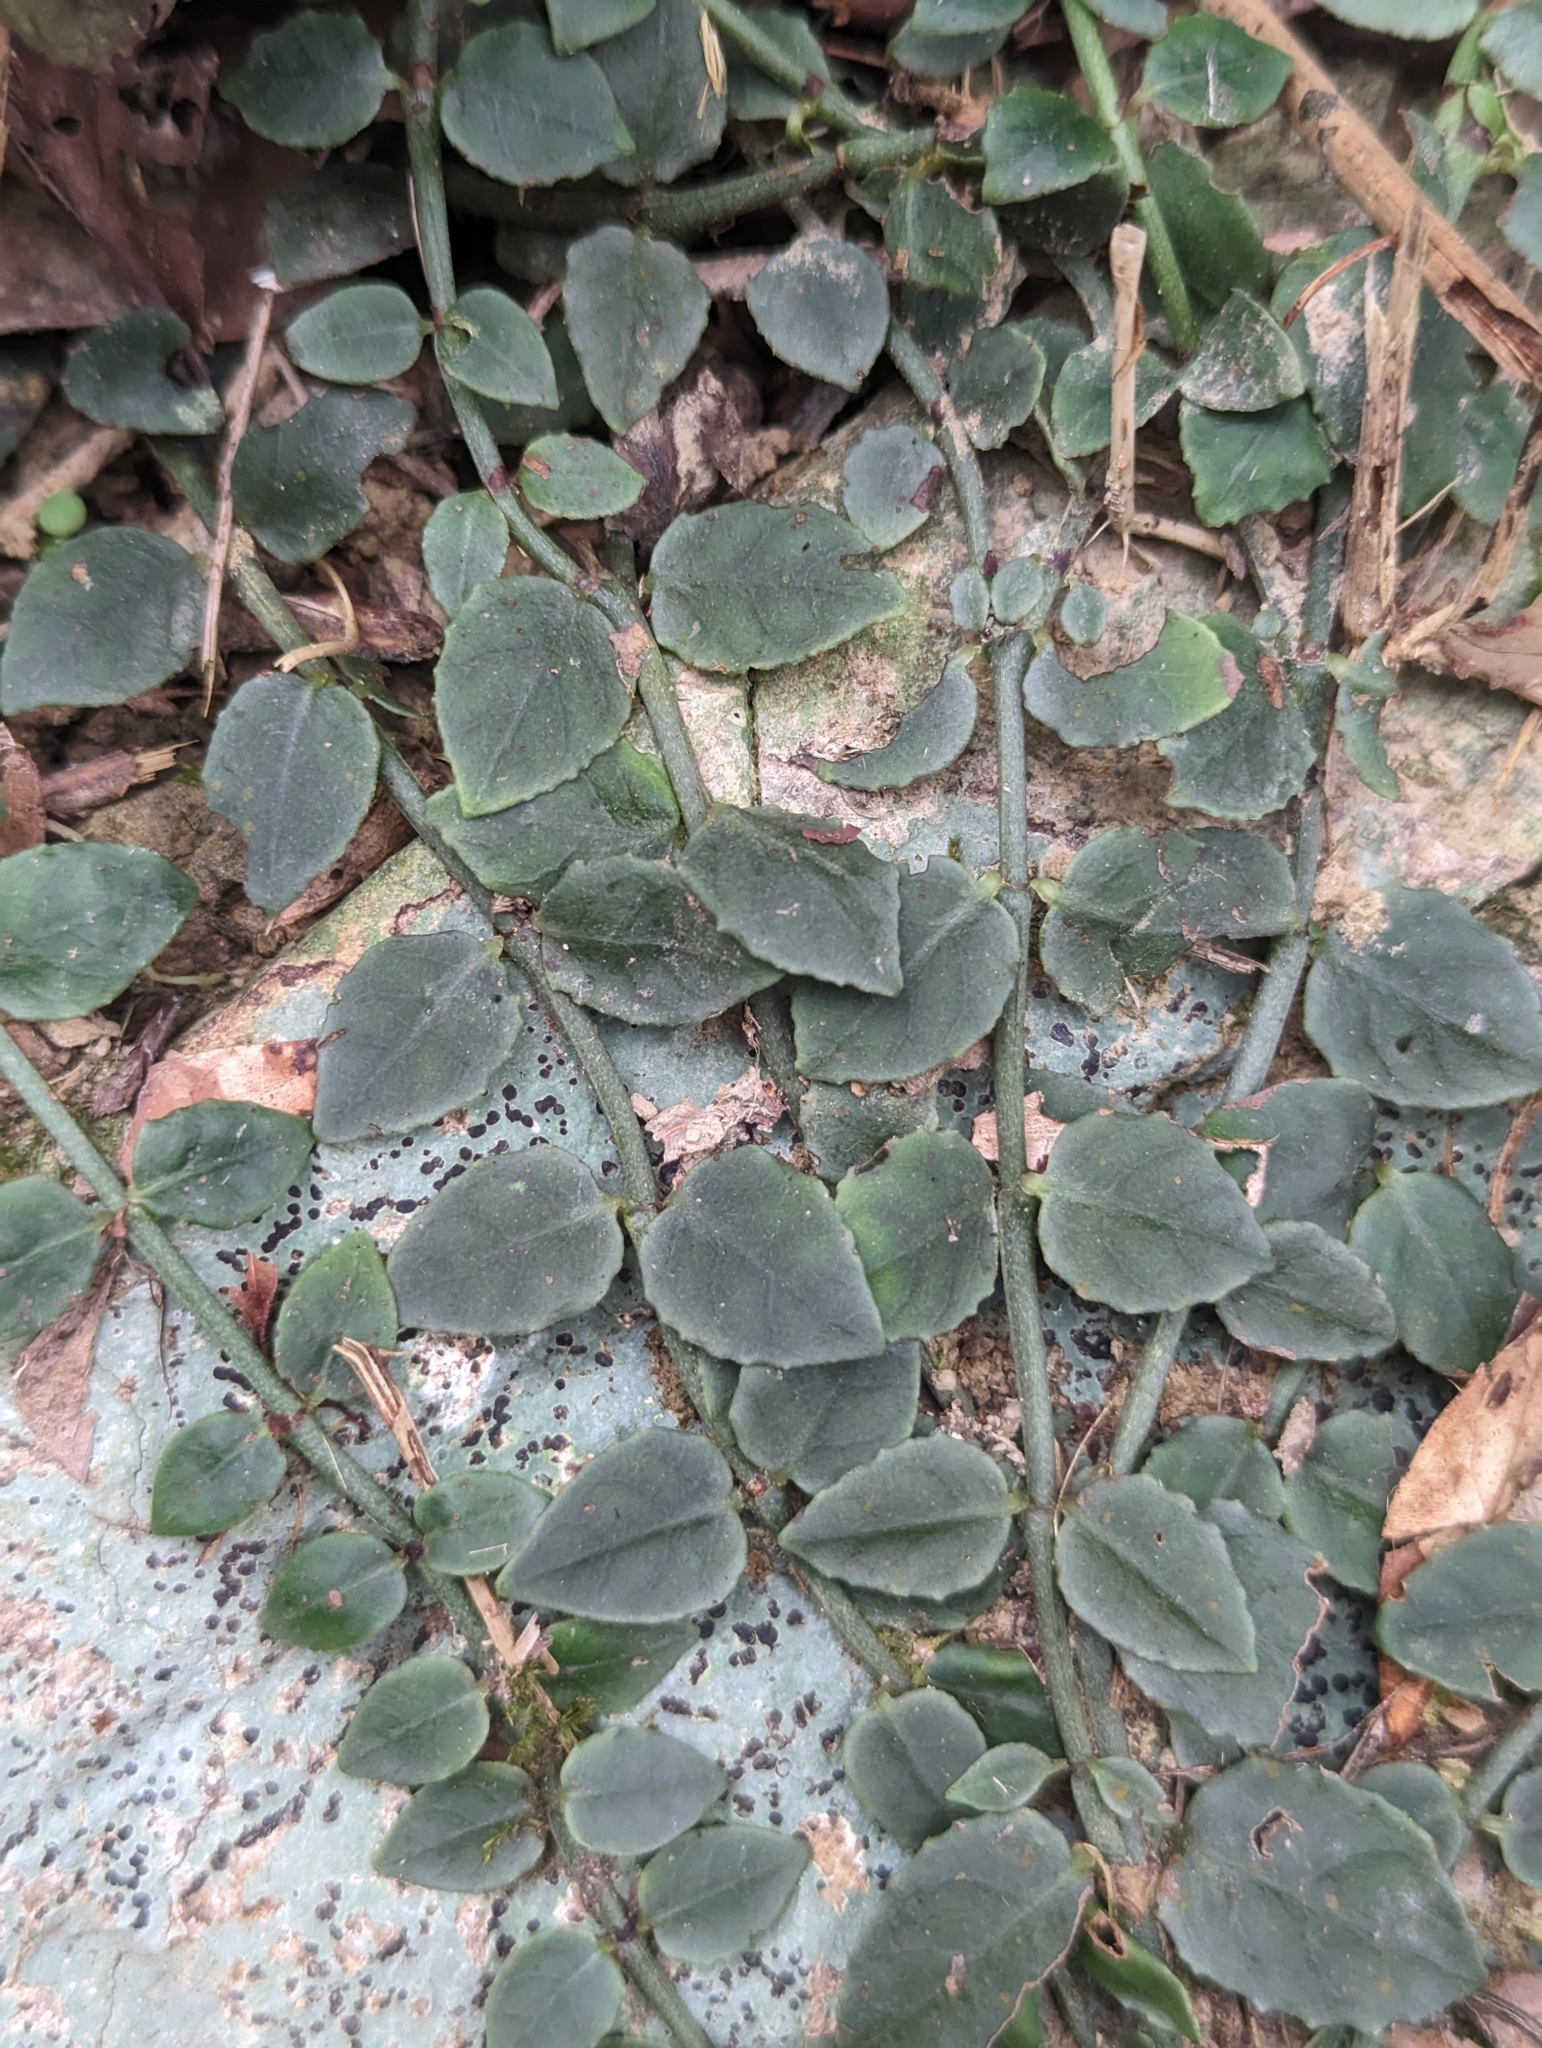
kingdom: Plantae
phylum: Tracheophyta
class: Magnoliopsida
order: Gentianales
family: Rubiaceae
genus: Psychotria
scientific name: Psychotria serpens
